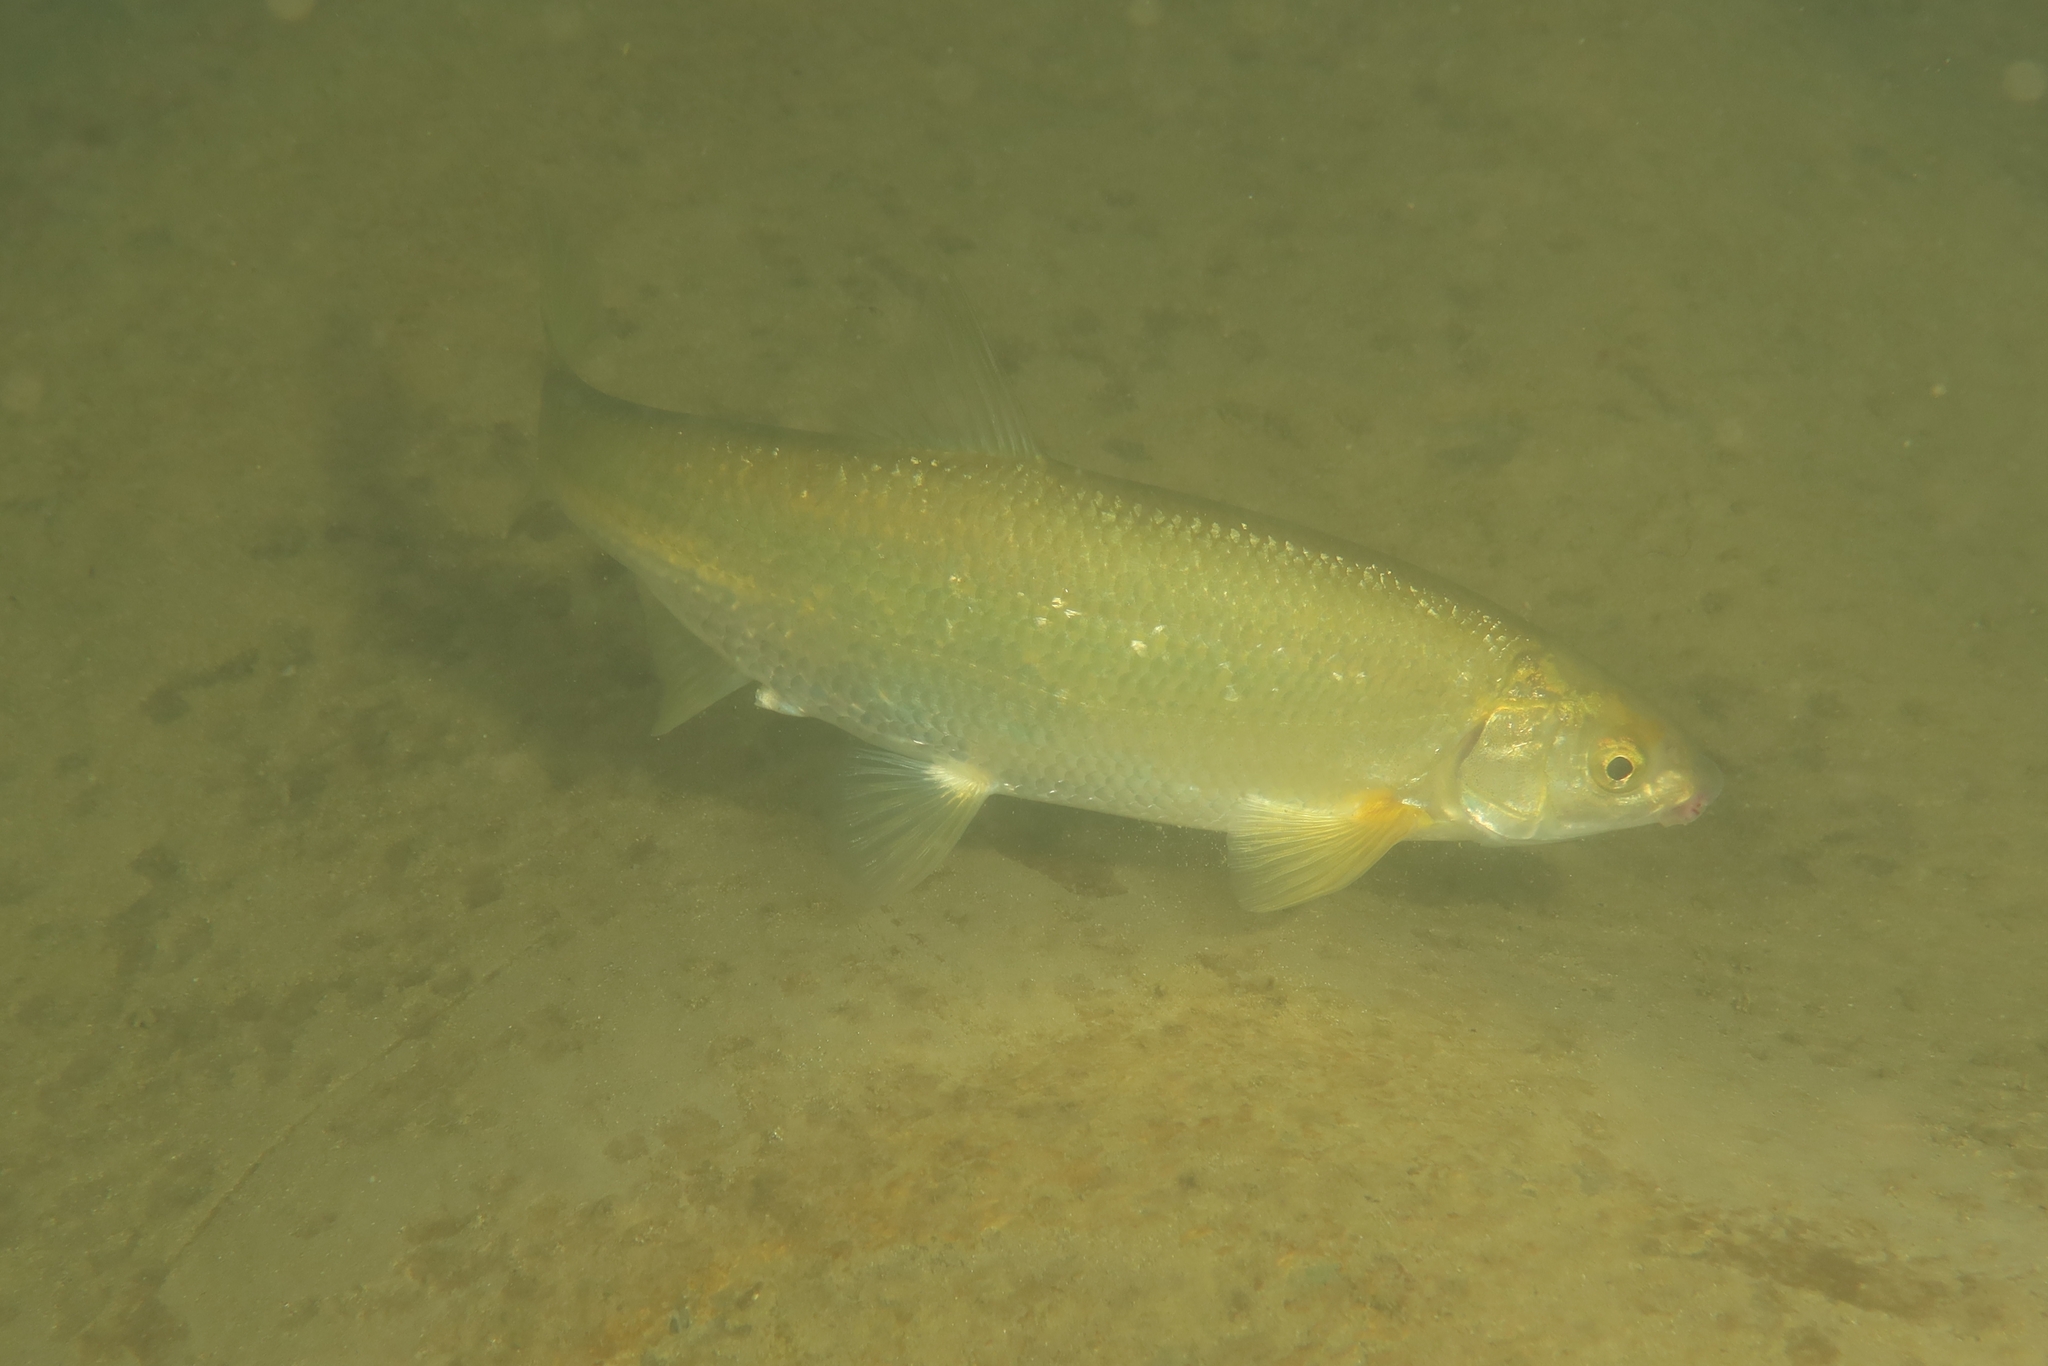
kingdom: Animalia
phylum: Chordata
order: Cypriniformes
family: Cyprinidae
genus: Parachondrostoma
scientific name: Parachondrostoma toxostoma
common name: Toxostome
